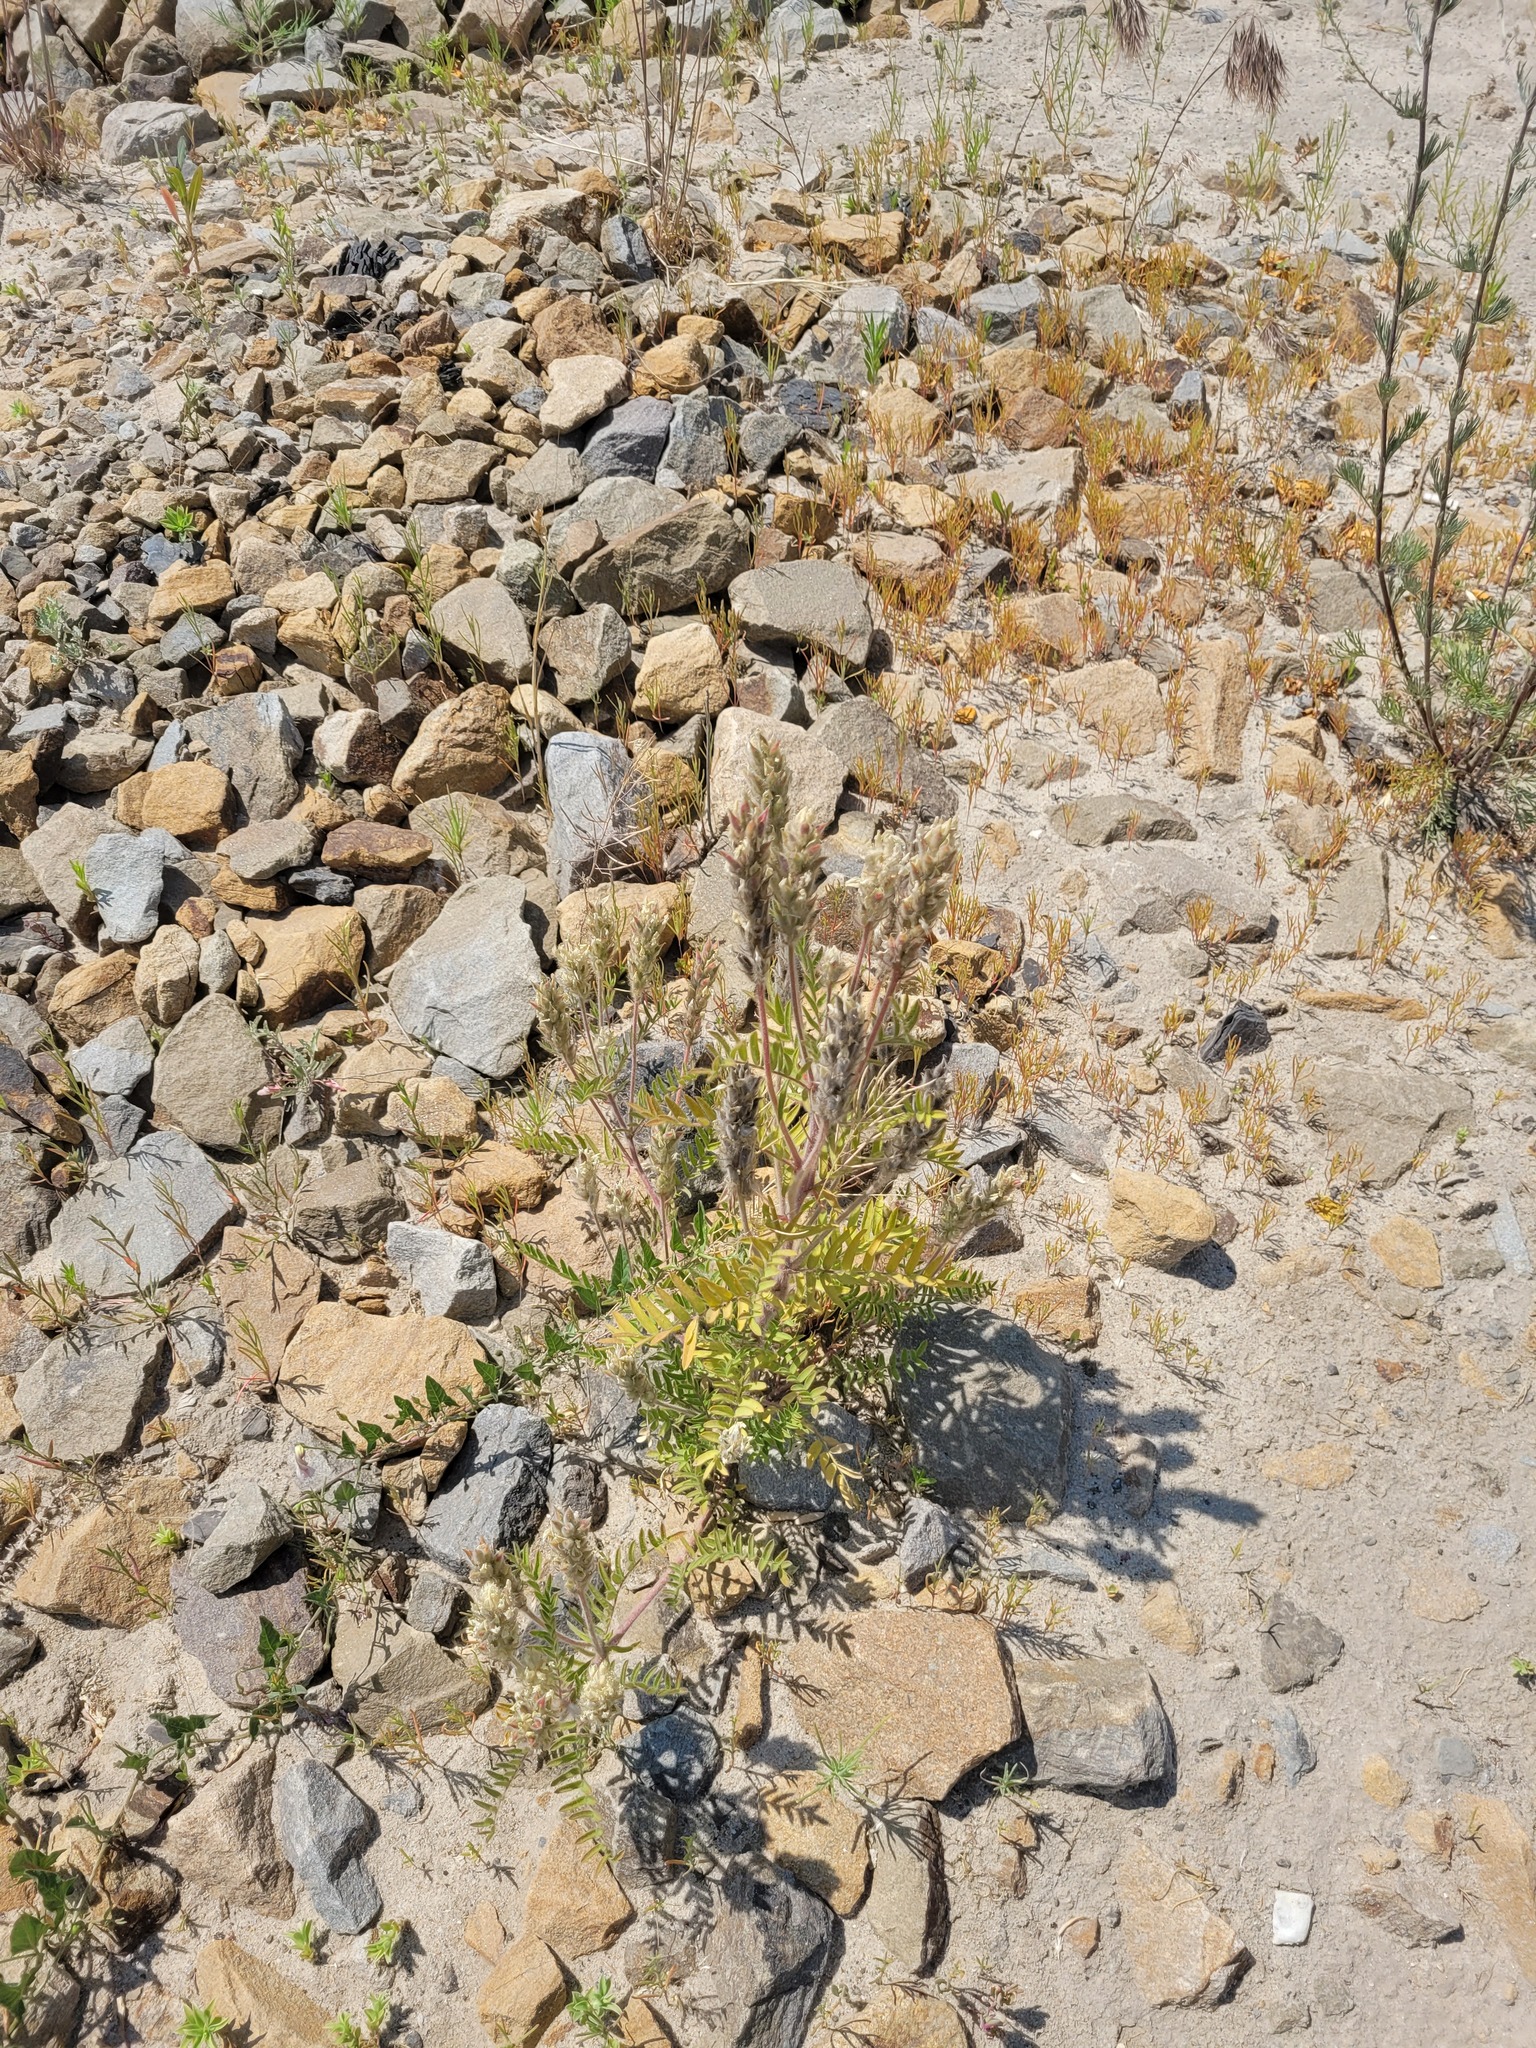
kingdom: Plantae
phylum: Tracheophyta
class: Magnoliopsida
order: Fabales
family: Fabaceae
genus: Oxytropis
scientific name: Oxytropis pilosa
